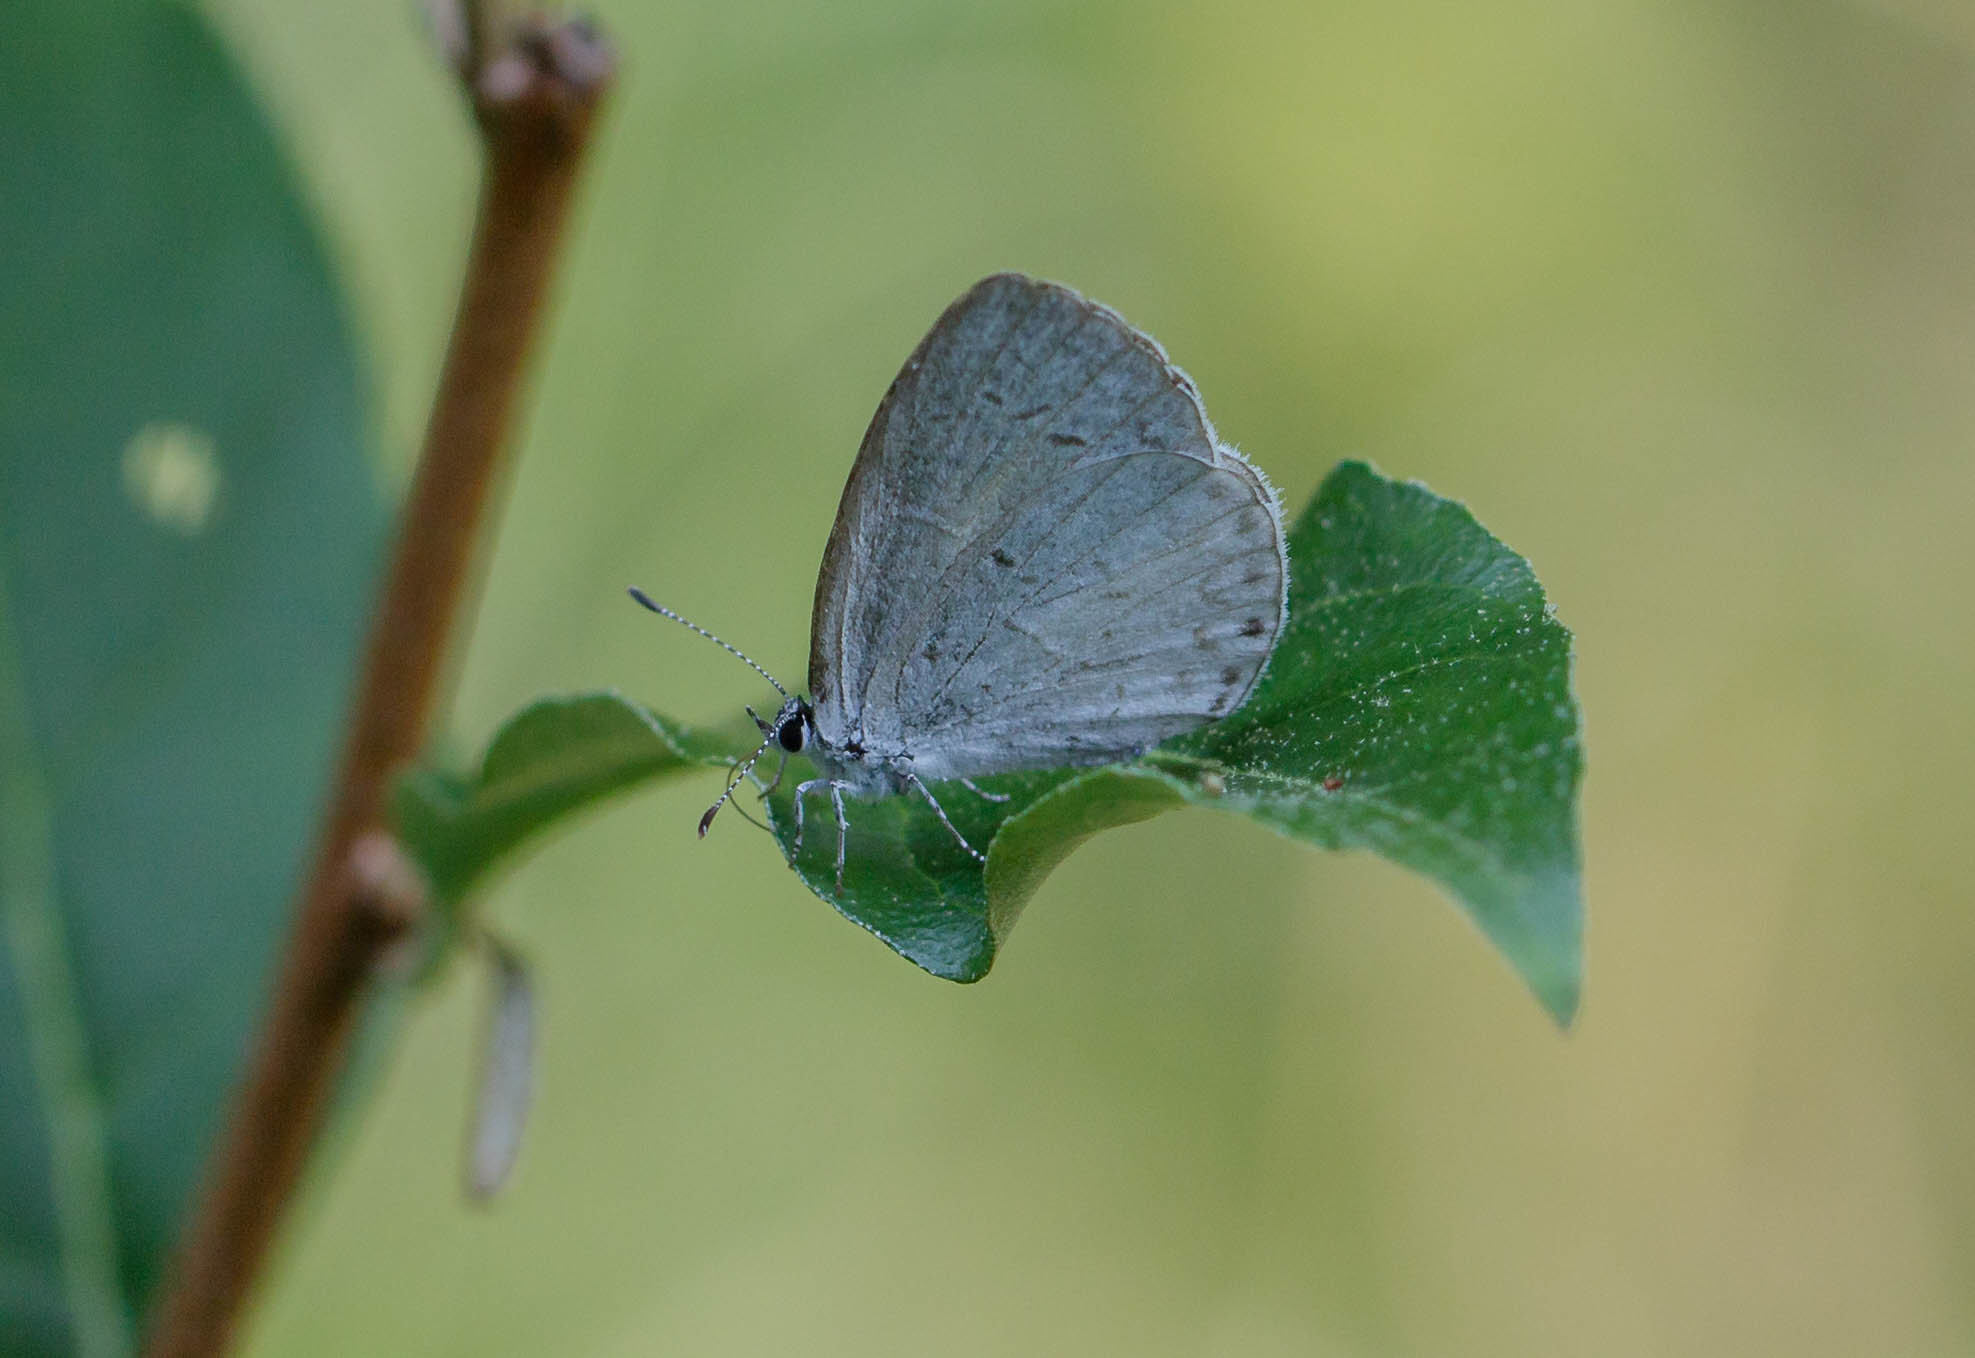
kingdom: Animalia
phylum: Arthropoda
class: Insecta
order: Lepidoptera
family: Lycaenidae
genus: Cyaniris
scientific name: Cyaniris neglecta
